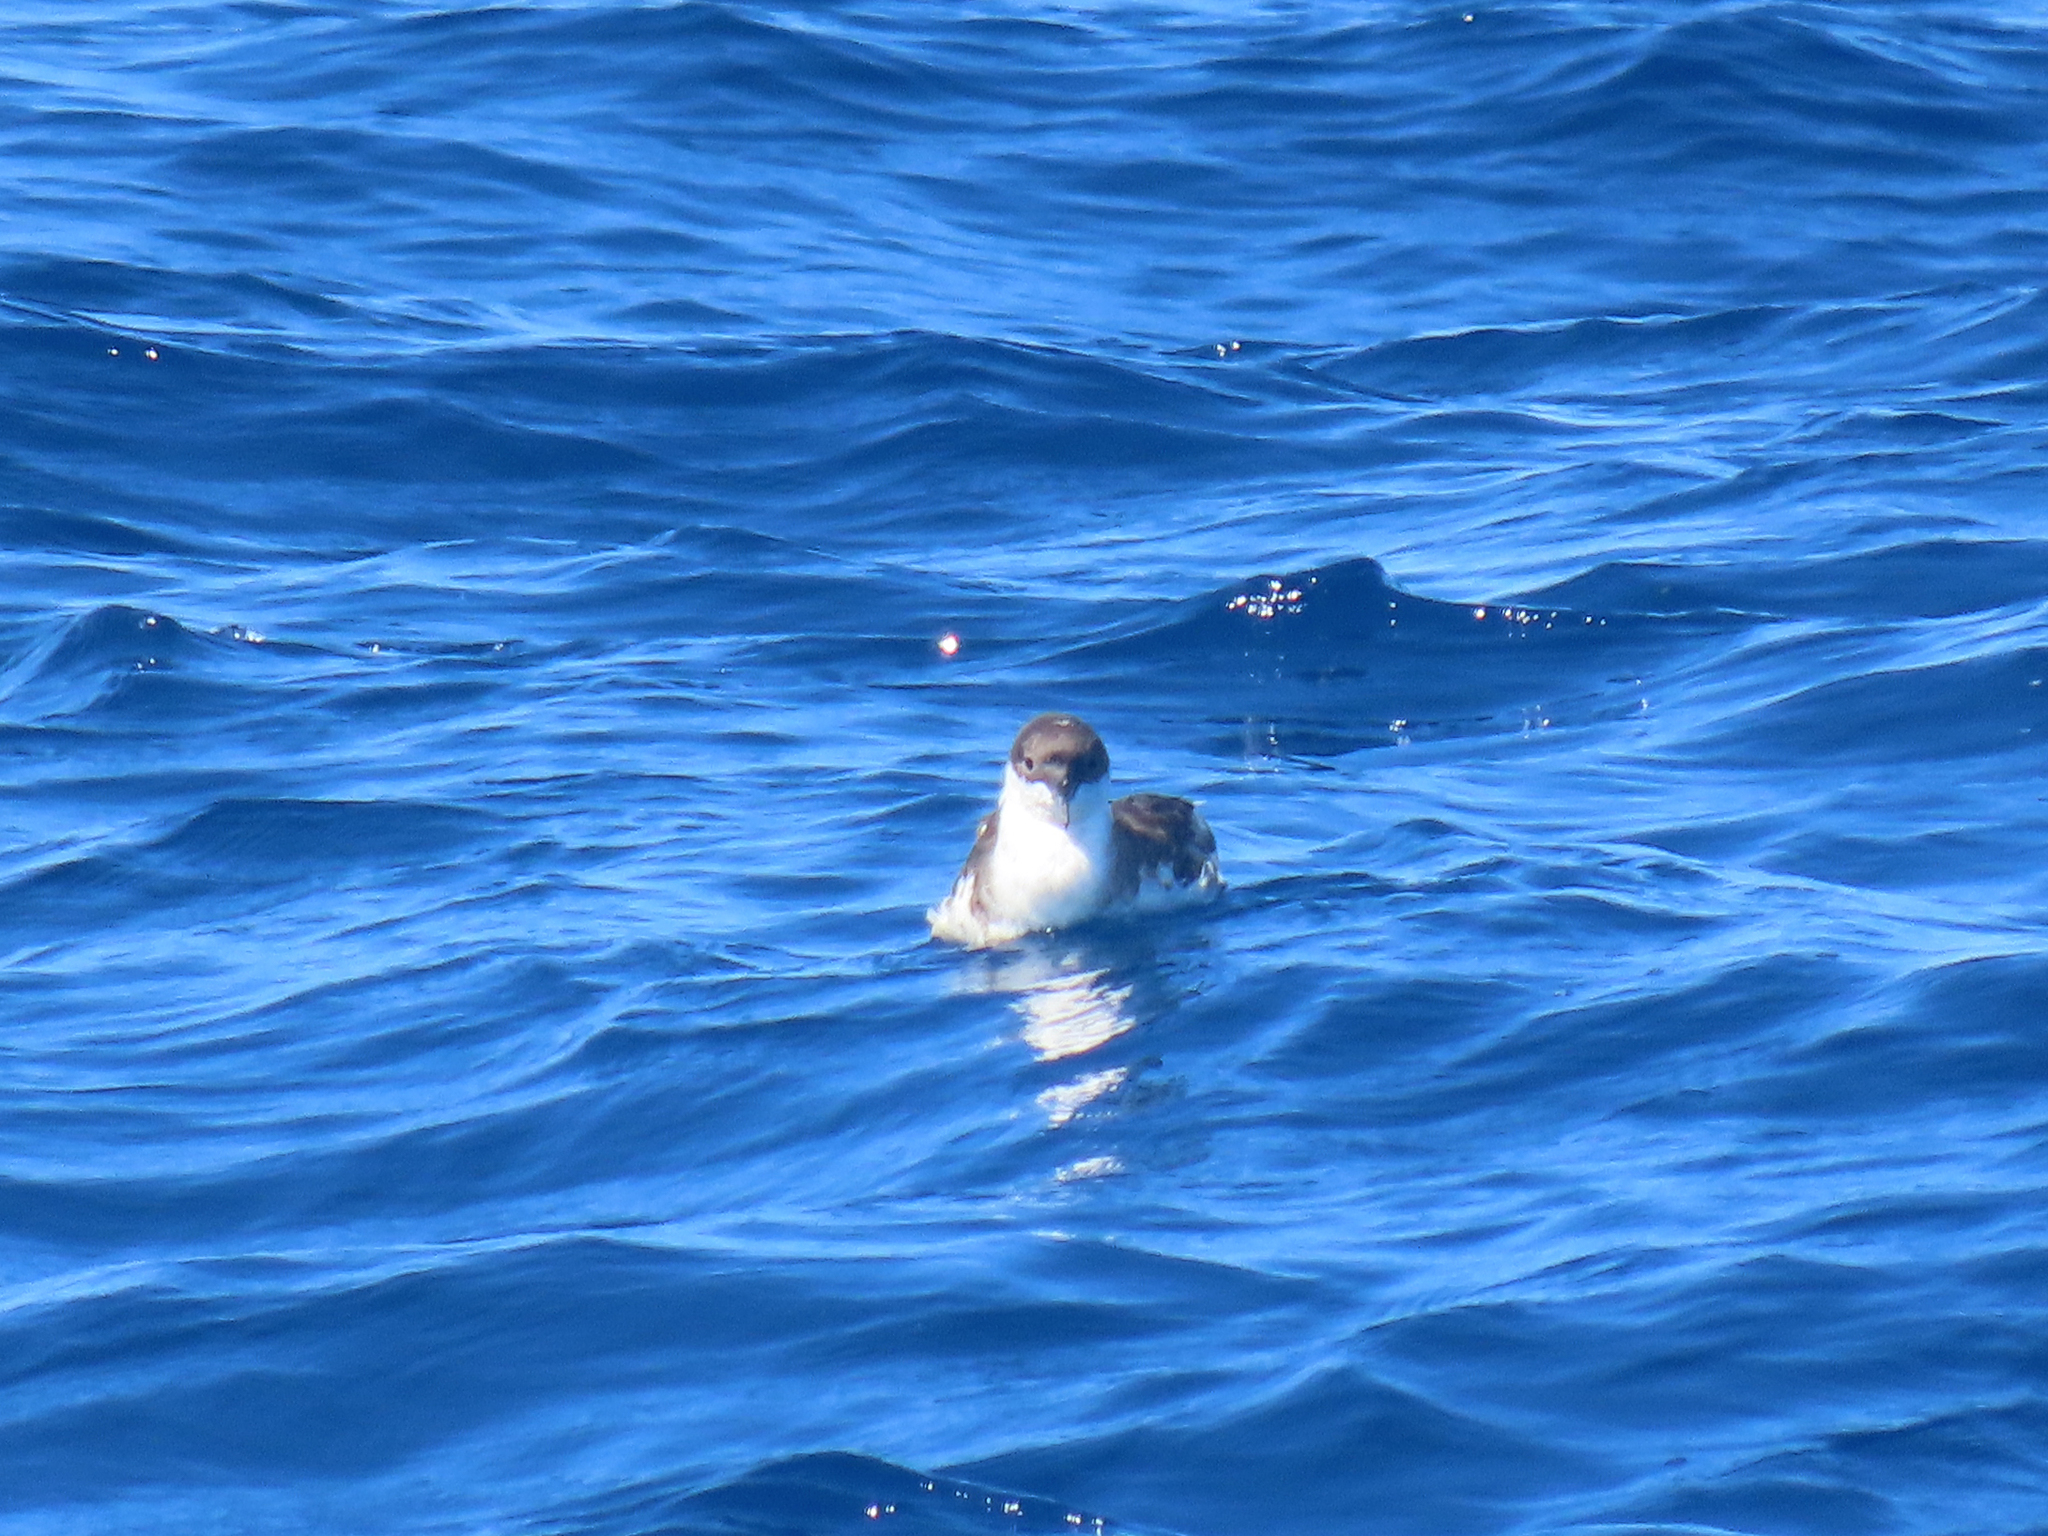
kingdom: Animalia
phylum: Chordata
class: Aves
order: Procellariiformes
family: Procellariidae
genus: Puffinus
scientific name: Puffinus gravis
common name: Great shearwater
